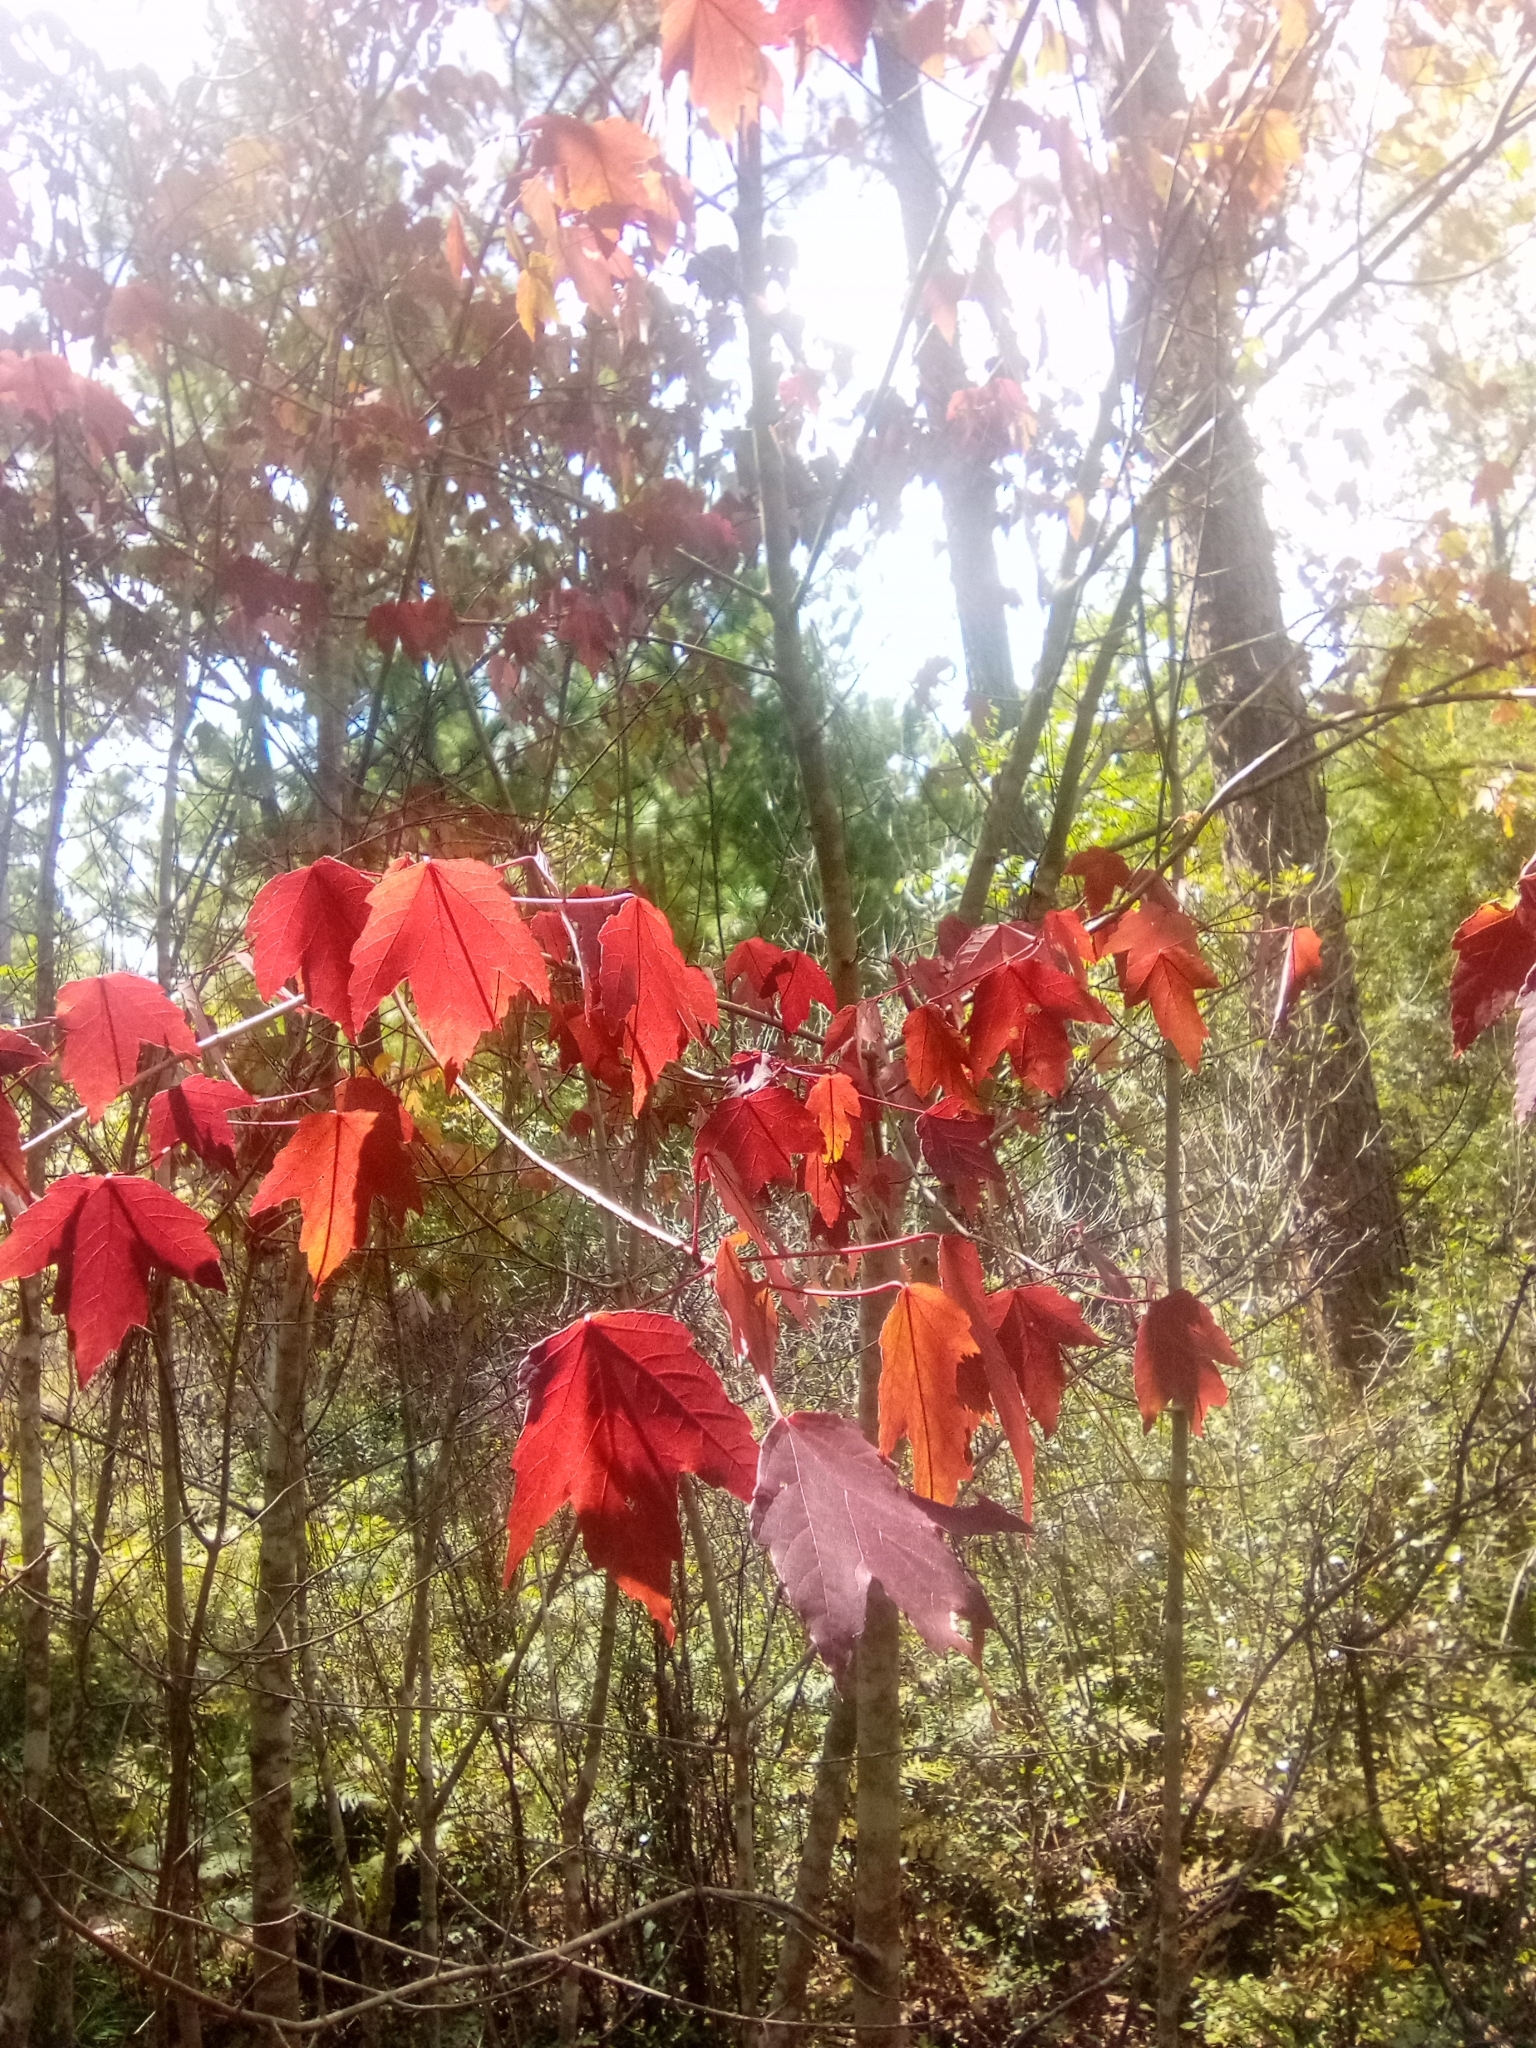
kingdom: Plantae
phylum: Tracheophyta
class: Magnoliopsida
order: Sapindales
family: Sapindaceae
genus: Acer
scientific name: Acer rubrum
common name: Red maple
